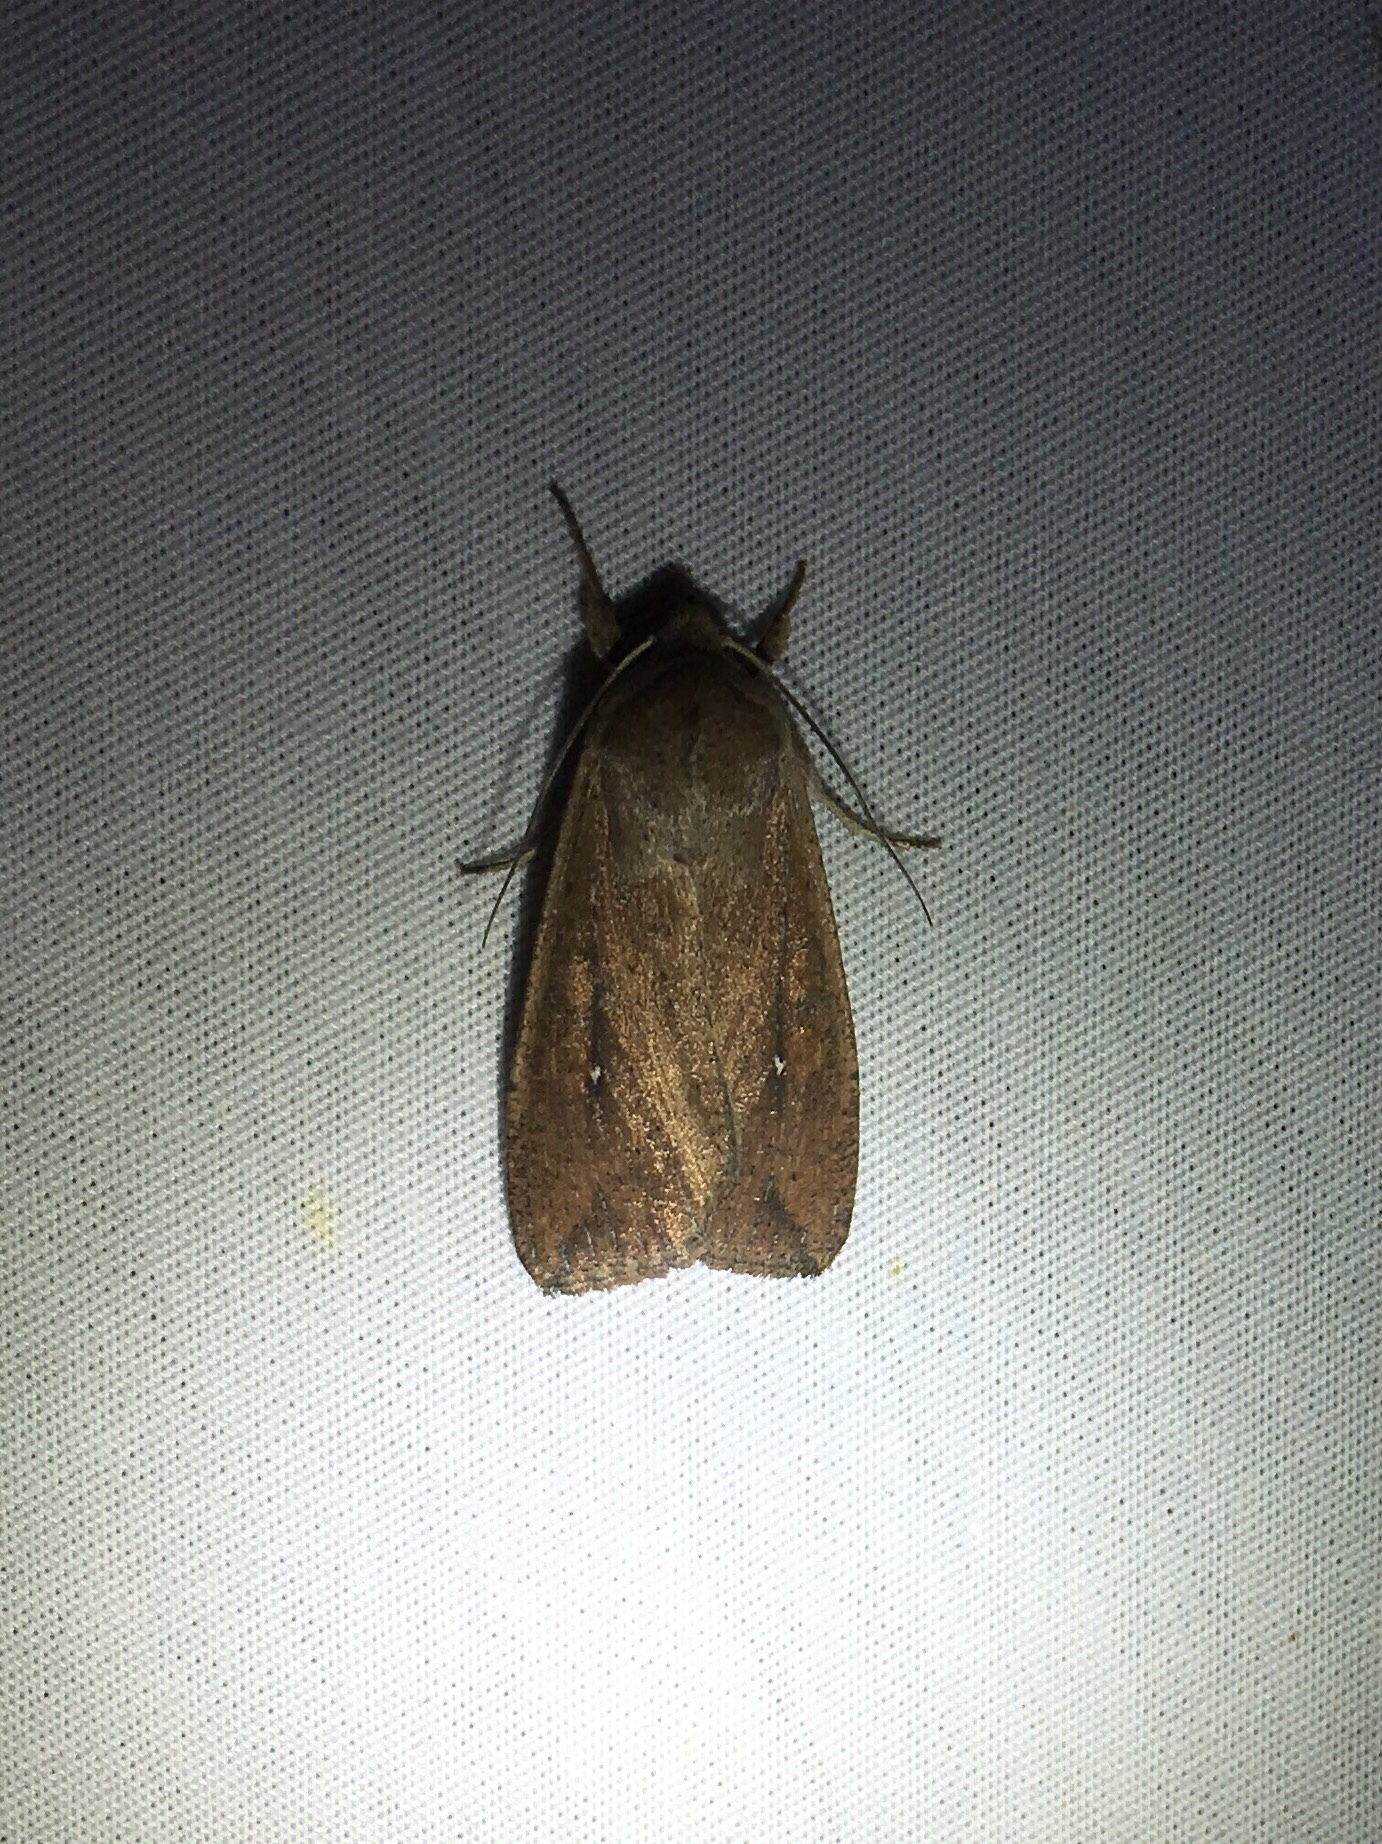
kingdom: Animalia
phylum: Arthropoda
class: Insecta
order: Lepidoptera
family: Noctuidae
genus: Mythimna
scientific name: Mythimna unipuncta
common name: White-speck
